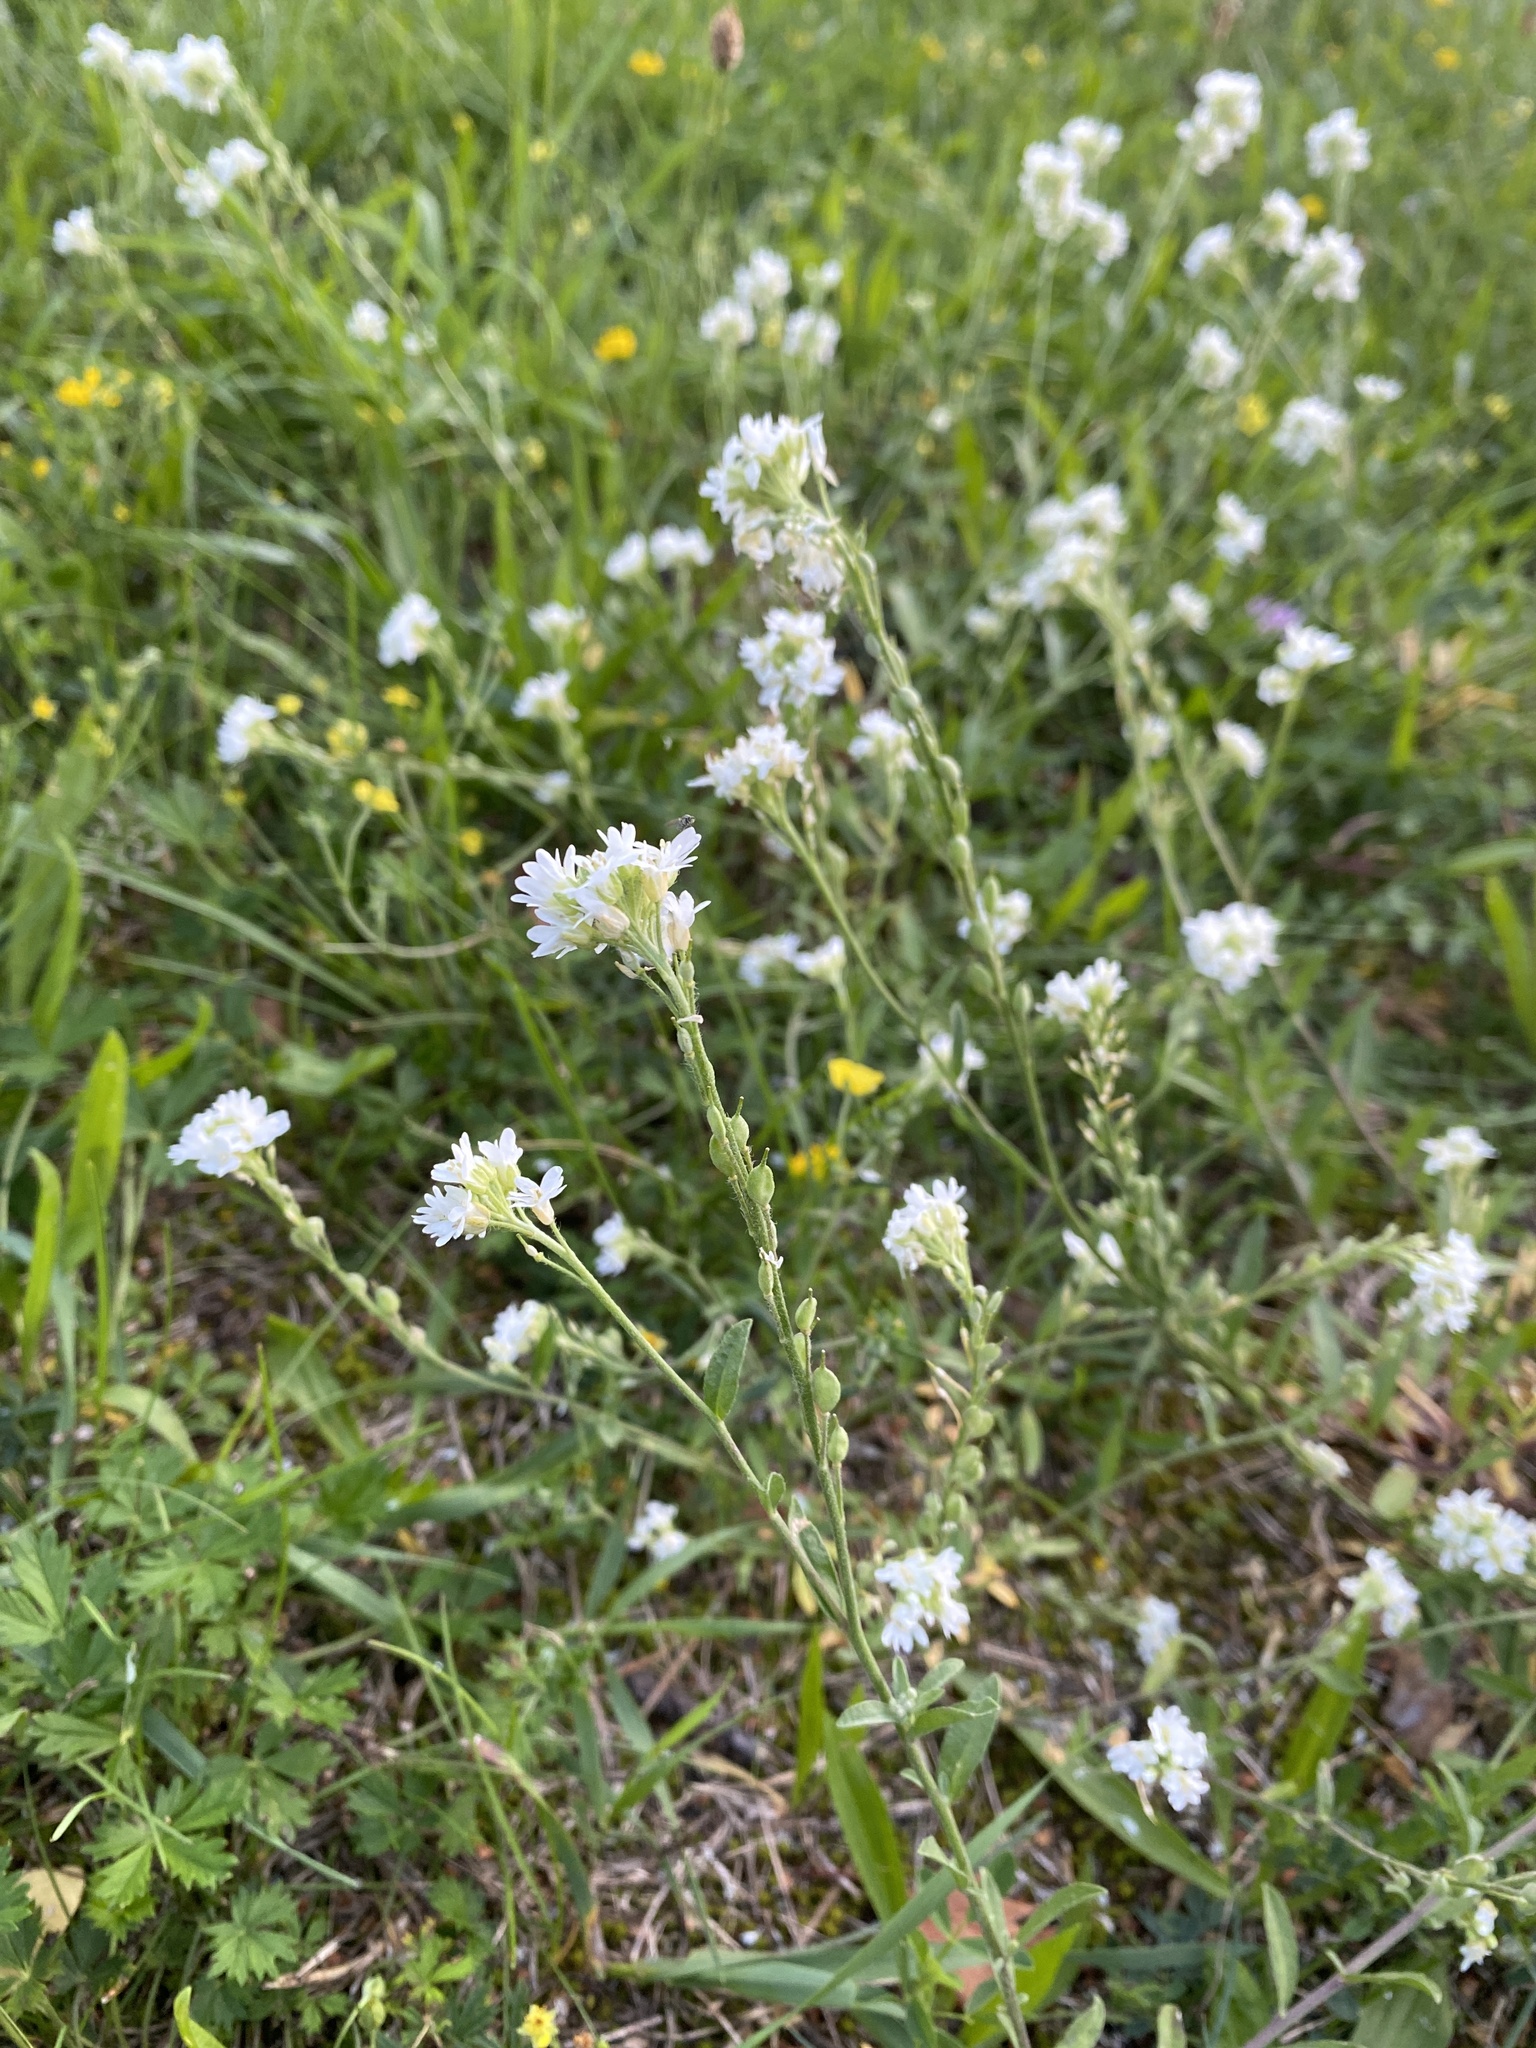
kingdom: Plantae
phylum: Tracheophyta
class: Magnoliopsida
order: Brassicales
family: Brassicaceae
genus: Berteroa
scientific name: Berteroa incana
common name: Hoary alison
